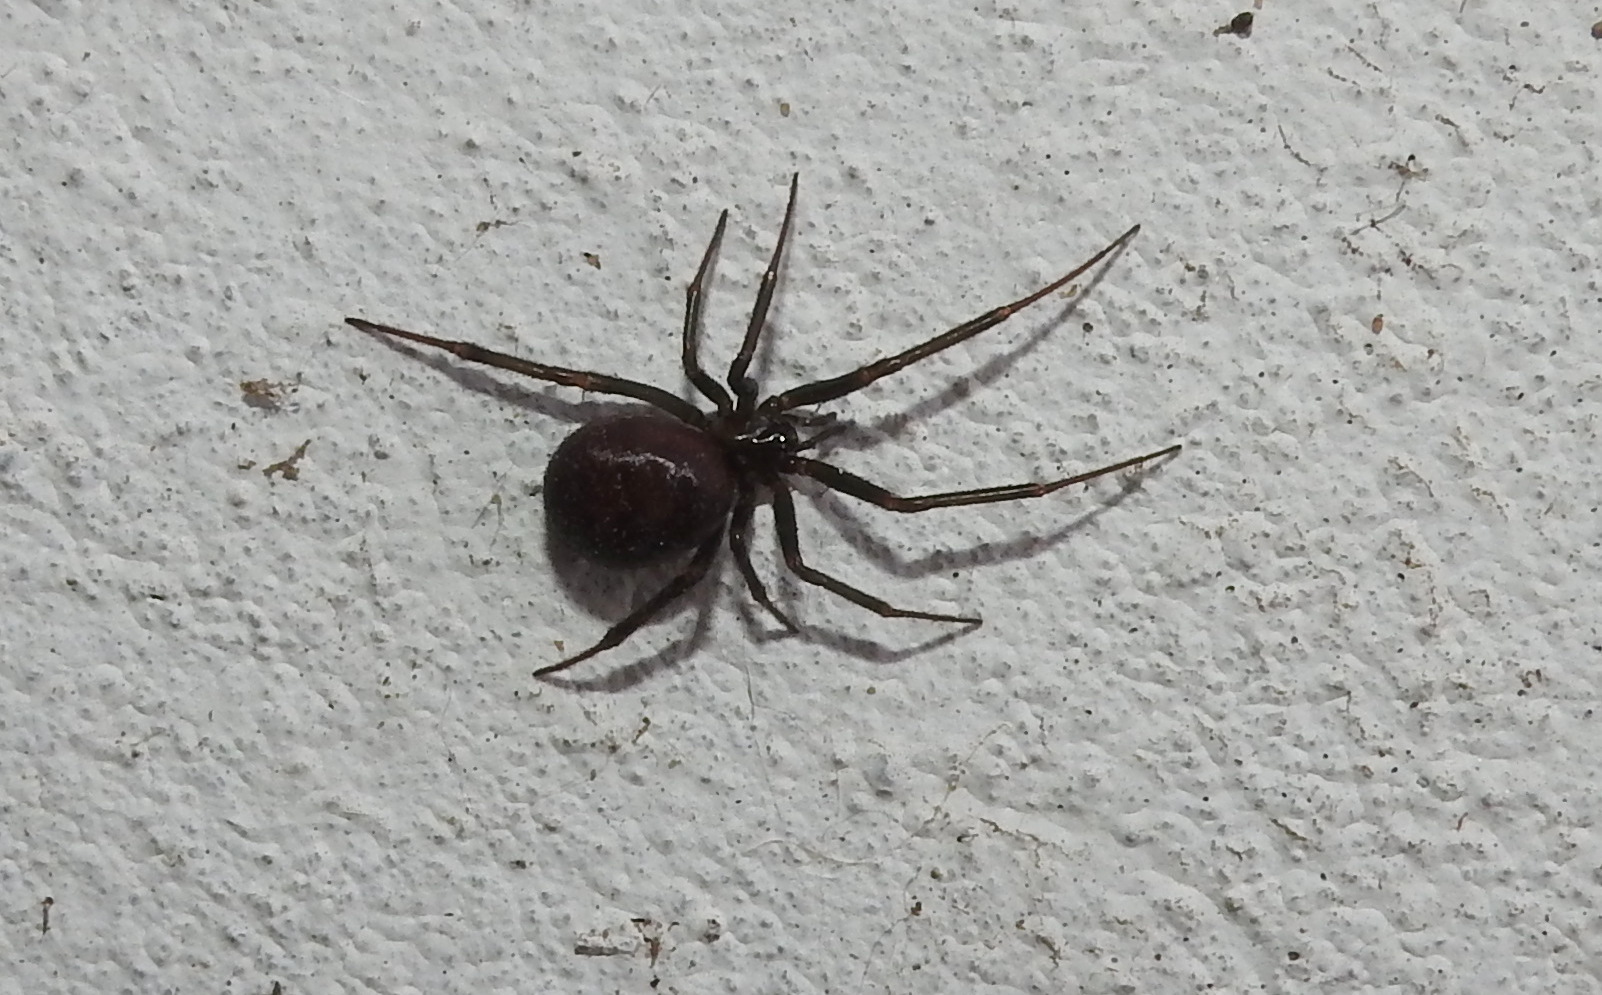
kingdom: Animalia
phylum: Arthropoda
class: Arachnida
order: Araneae
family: Theridiidae
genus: Steatoda
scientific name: Steatoda grossa
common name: False black widow
